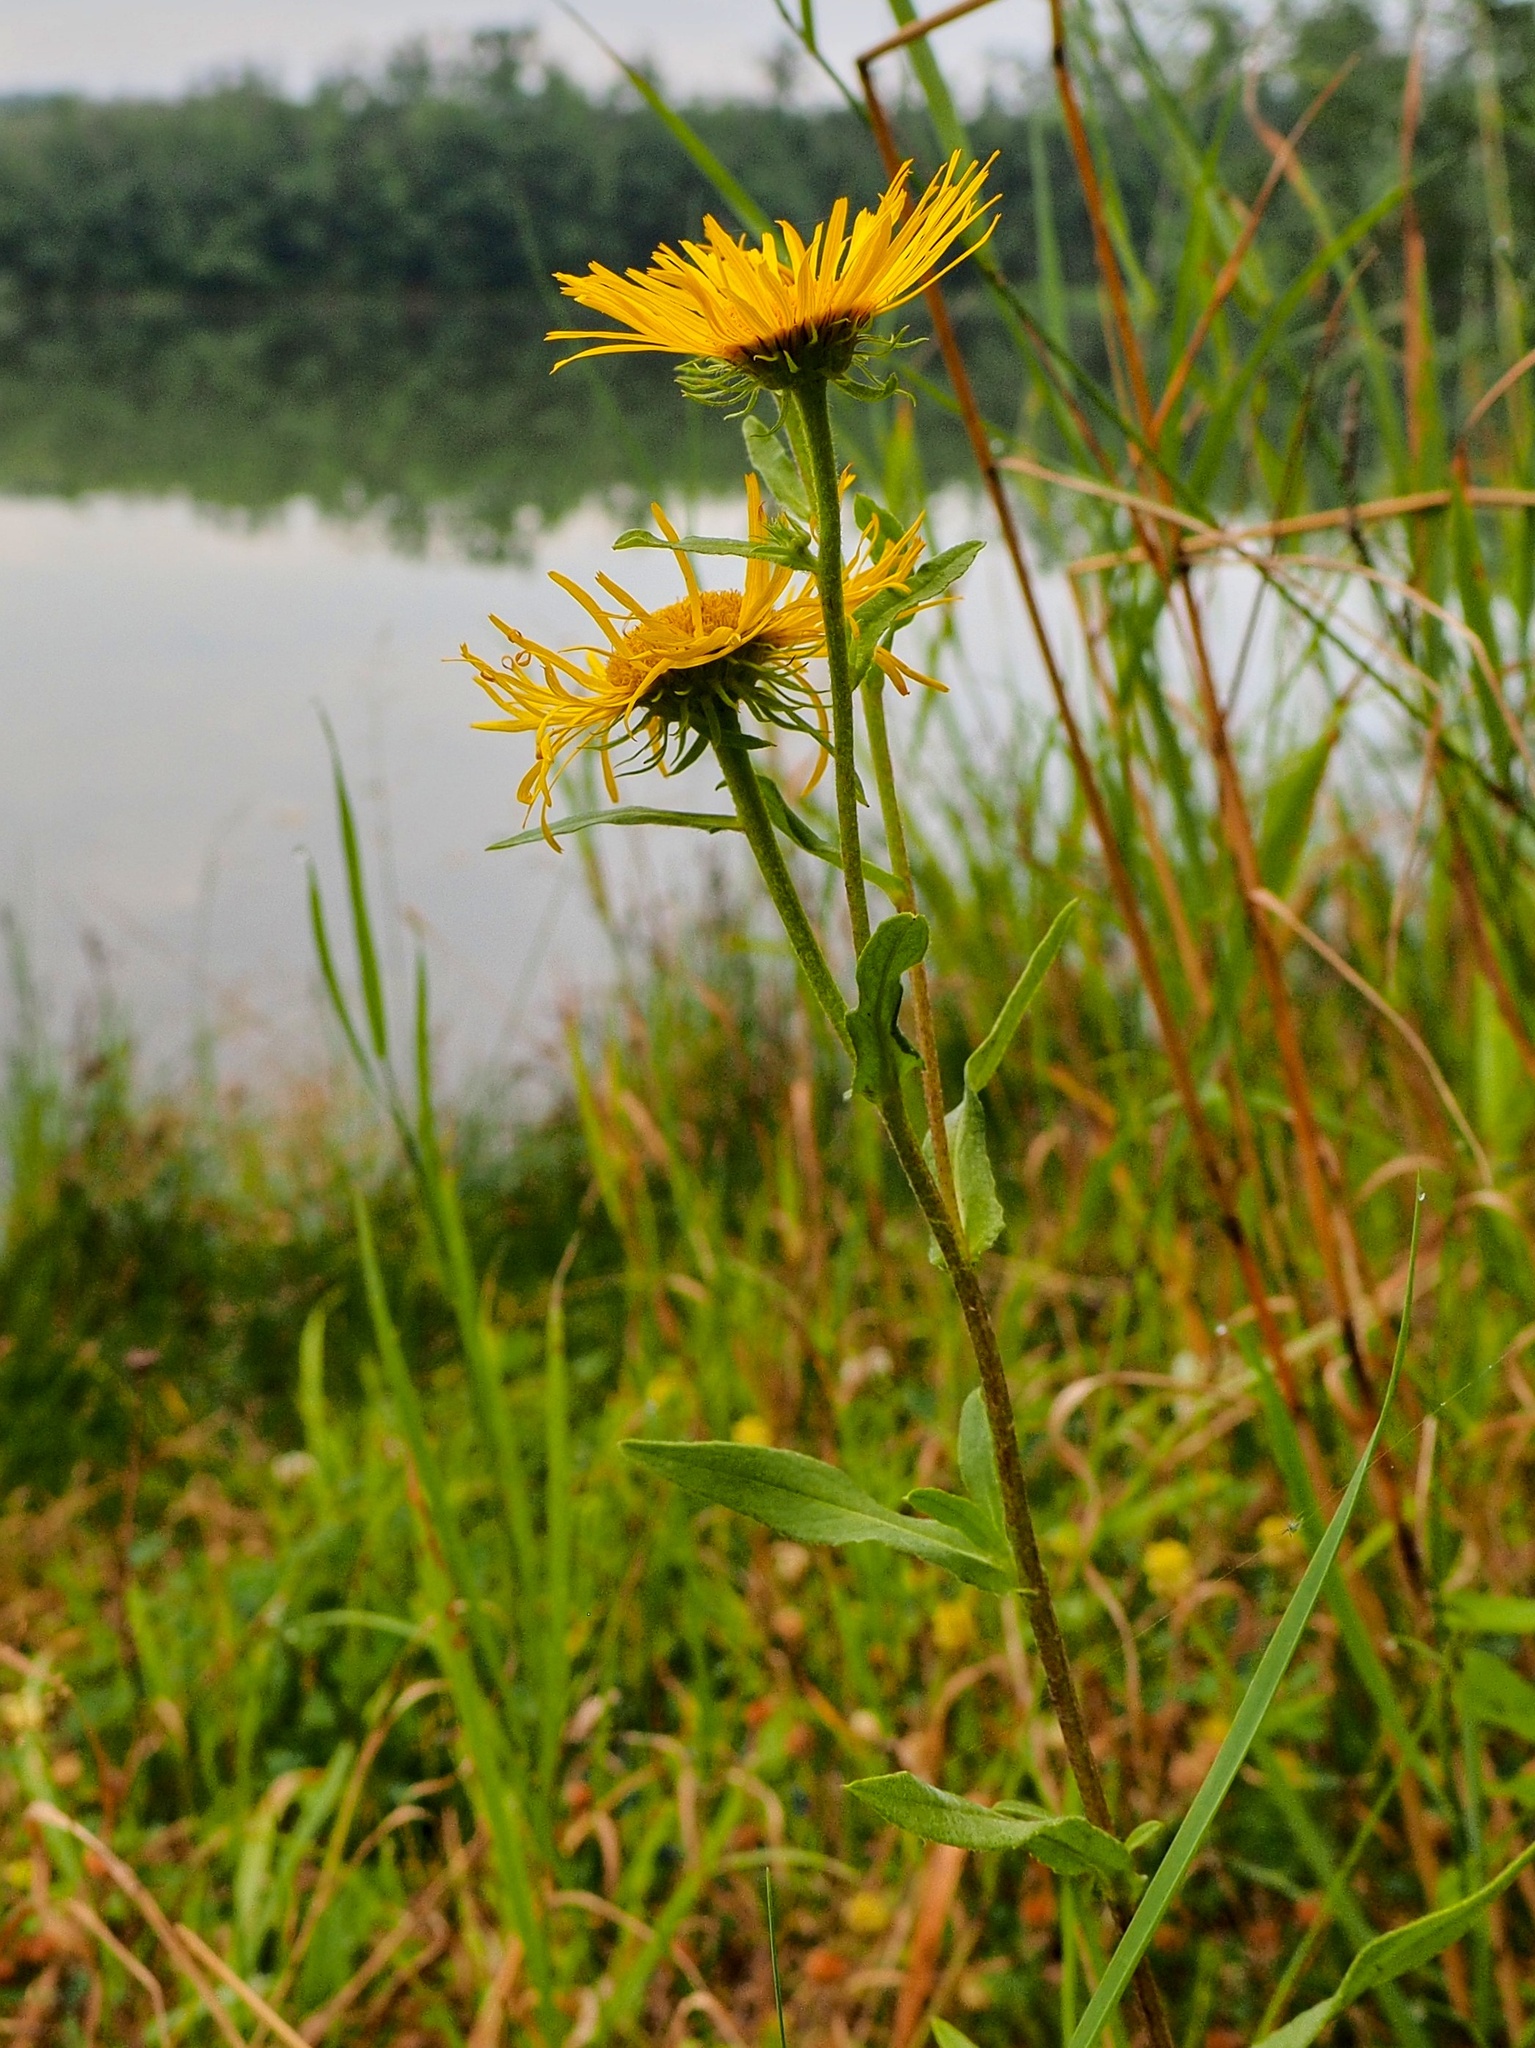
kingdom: Plantae
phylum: Tracheophyta
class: Magnoliopsida
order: Asterales
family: Asteraceae
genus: Pentanema
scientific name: Pentanema britannicum
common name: British elecampane
